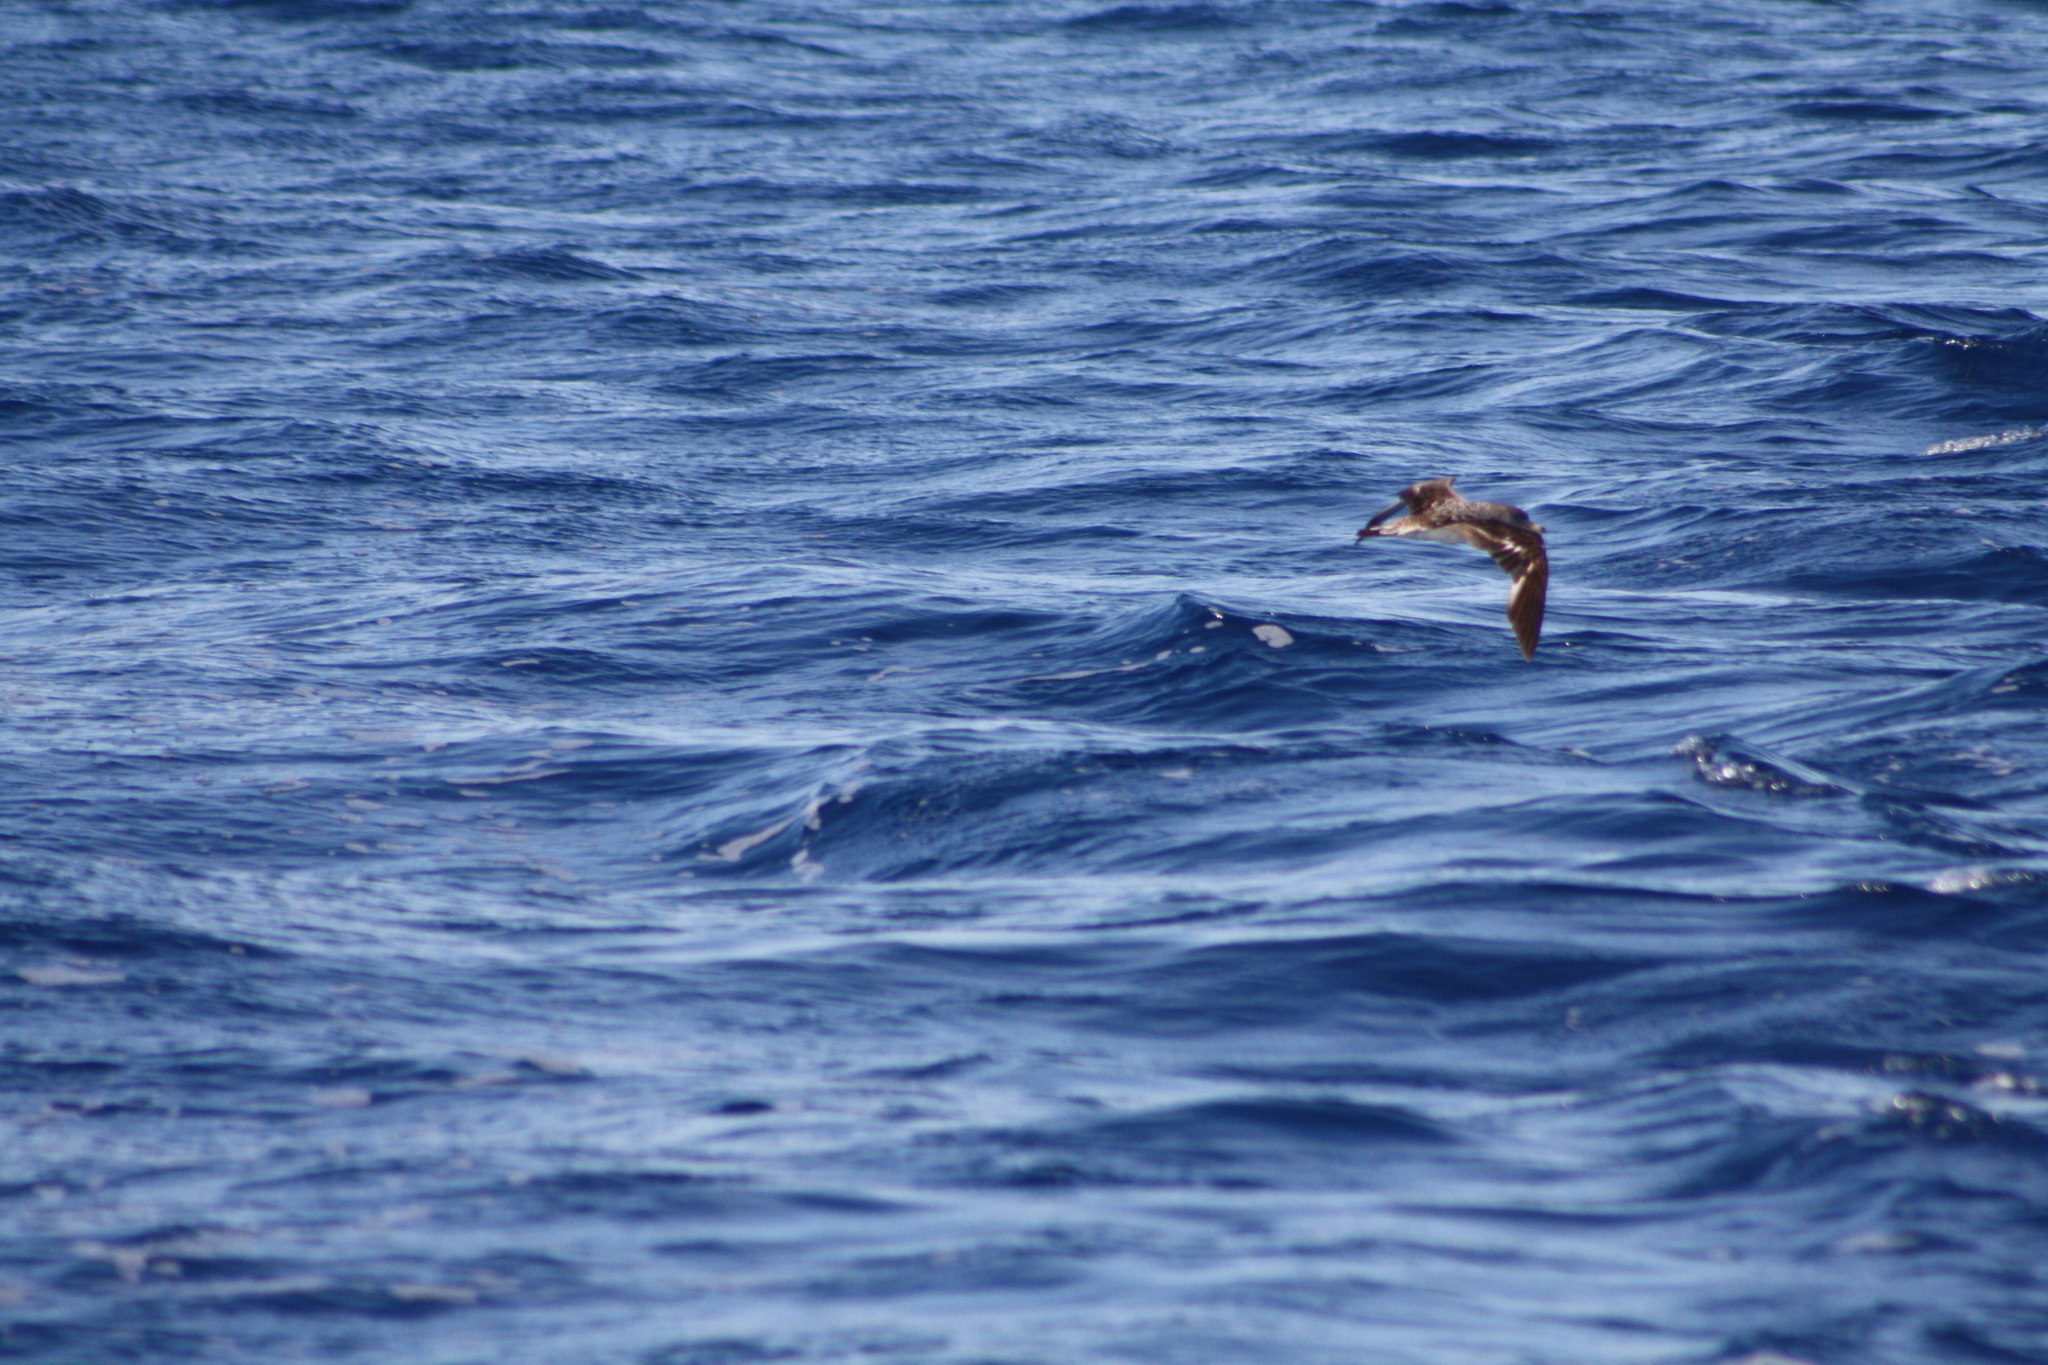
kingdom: Animalia
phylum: Chordata
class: Aves
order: Procellariiformes
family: Procellariidae
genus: Calonectris
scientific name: Calonectris diomedea
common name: Cory's shearwater
